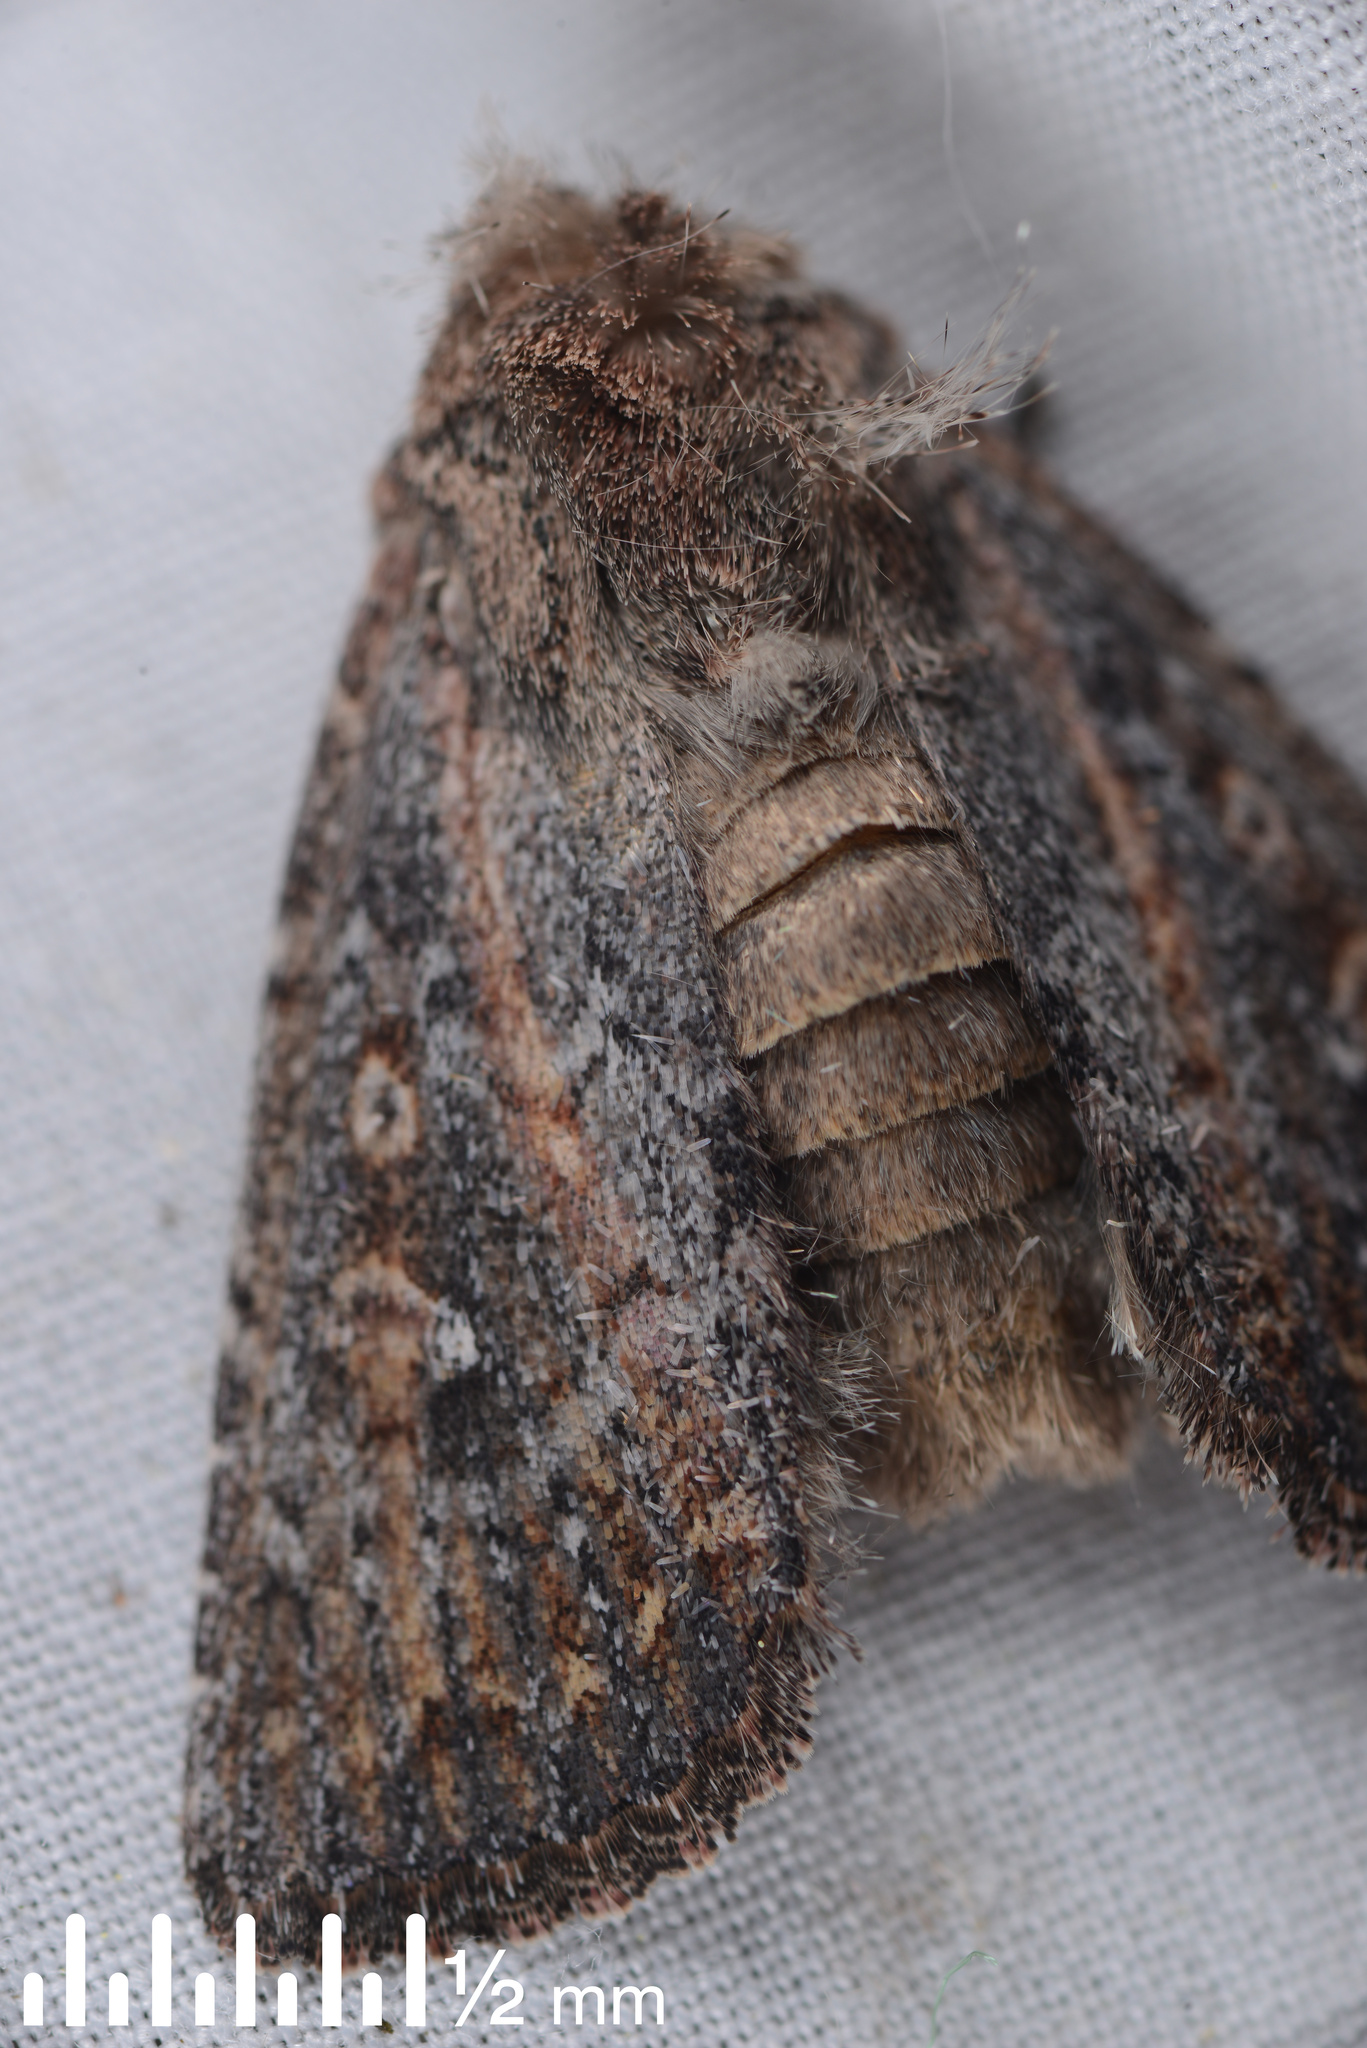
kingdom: Animalia
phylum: Arthropoda
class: Insecta
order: Lepidoptera
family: Noctuidae
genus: Ichneutica
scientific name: Ichneutica
